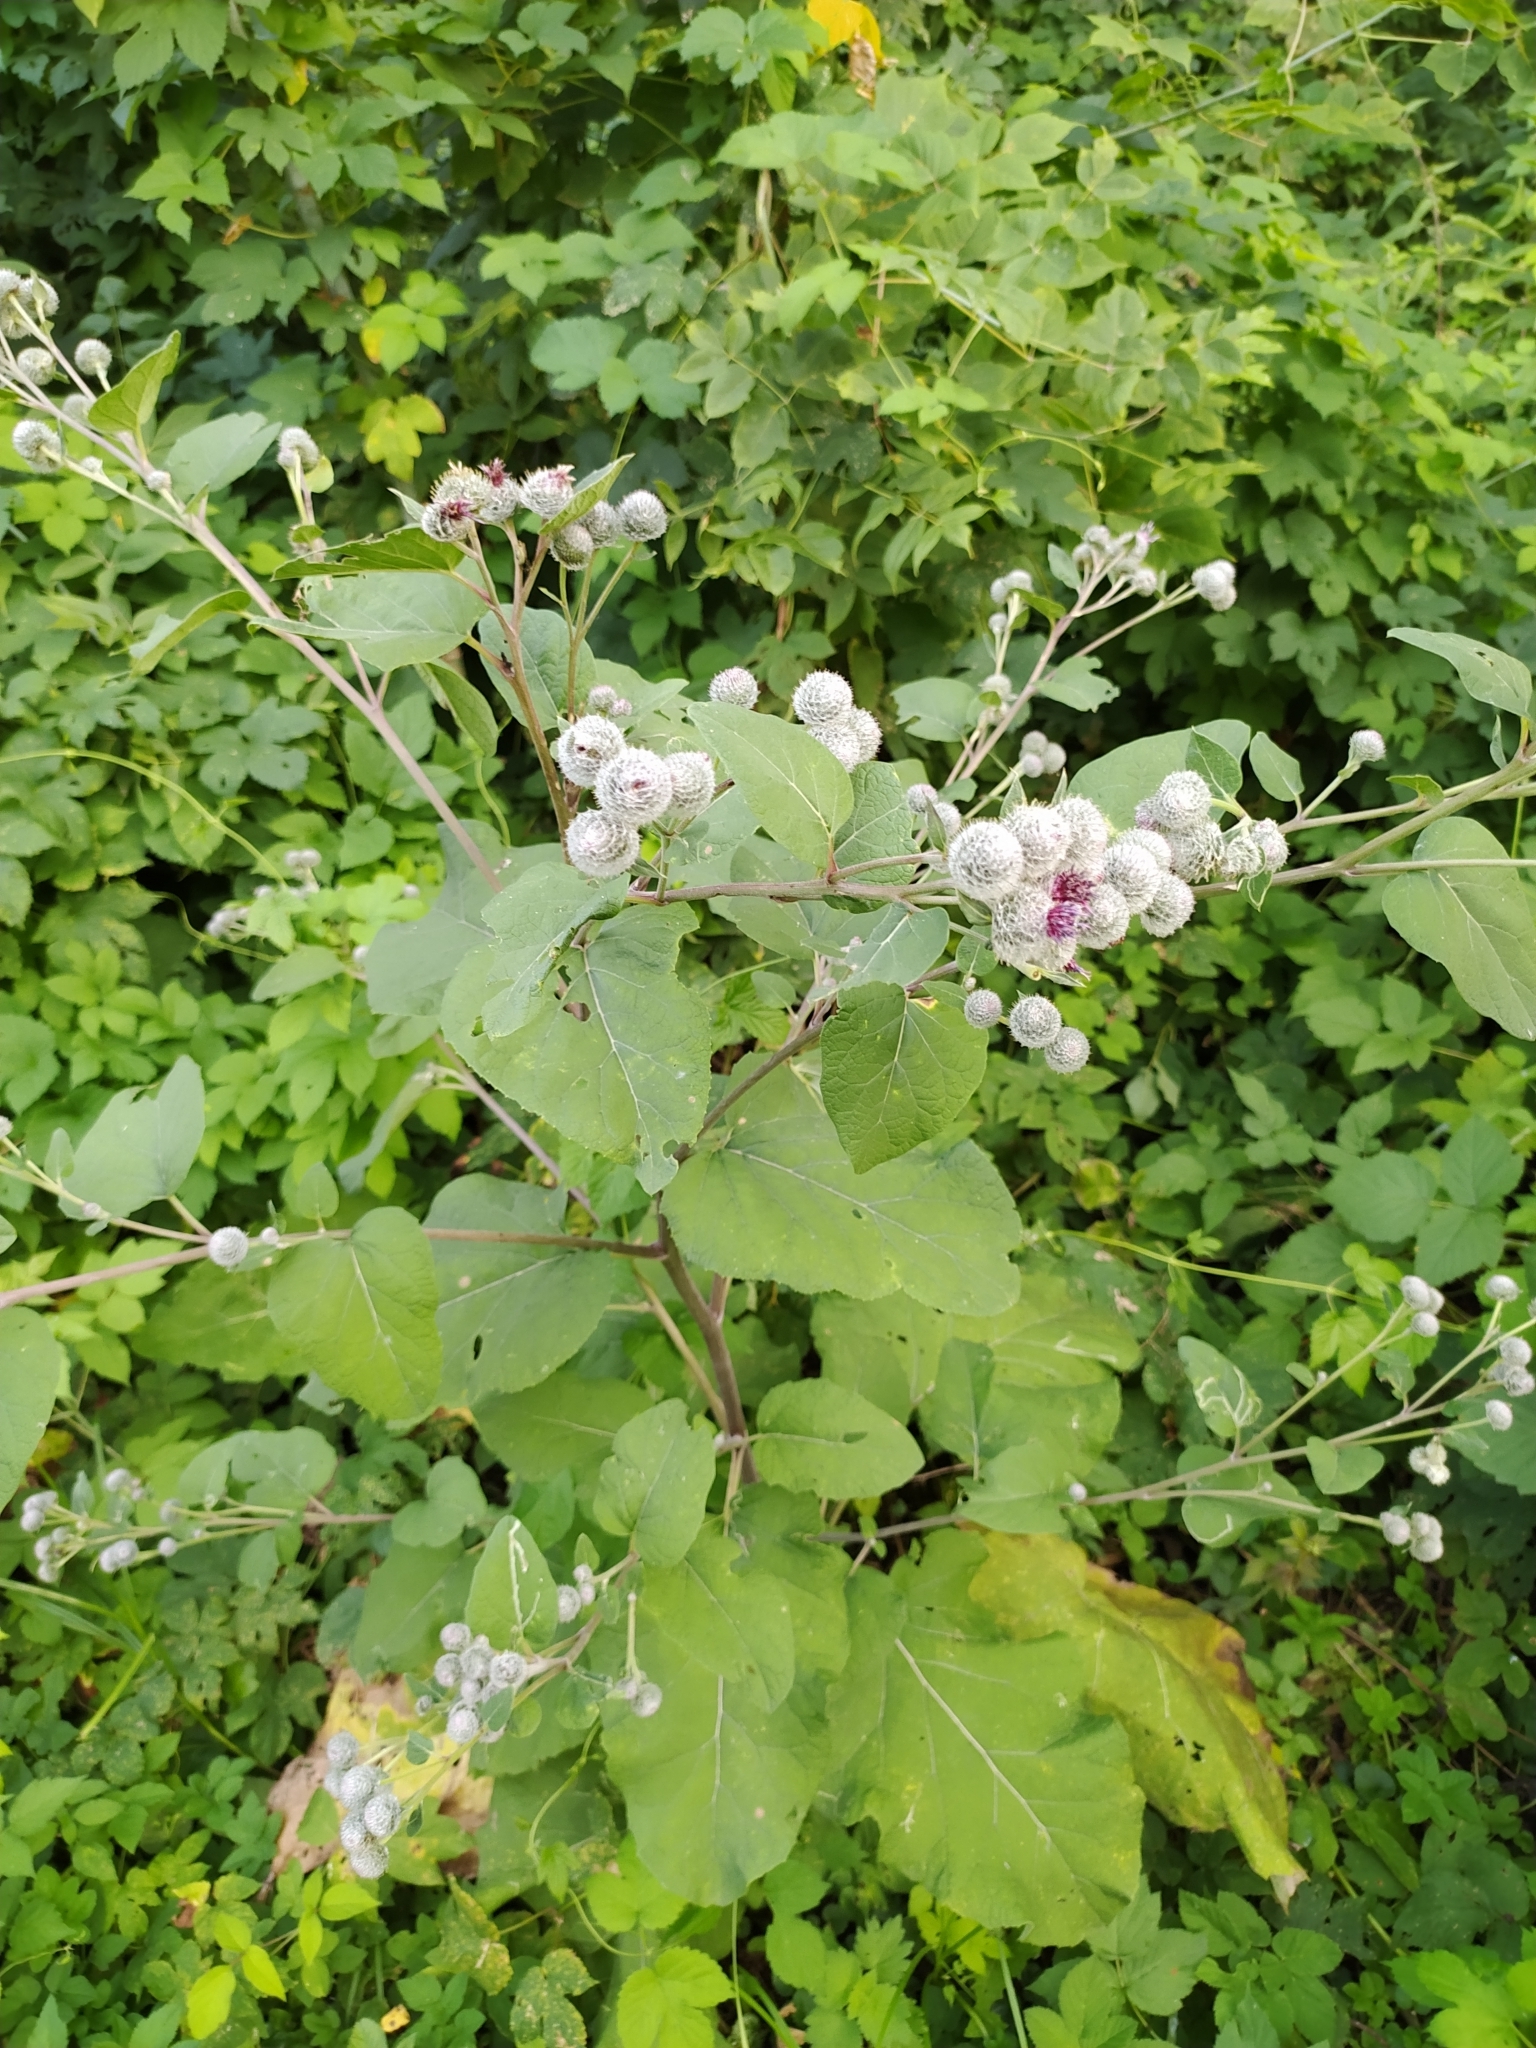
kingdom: Plantae
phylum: Tracheophyta
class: Magnoliopsida
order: Asterales
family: Asteraceae
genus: Arctium
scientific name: Arctium tomentosum
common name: Woolly burdock
